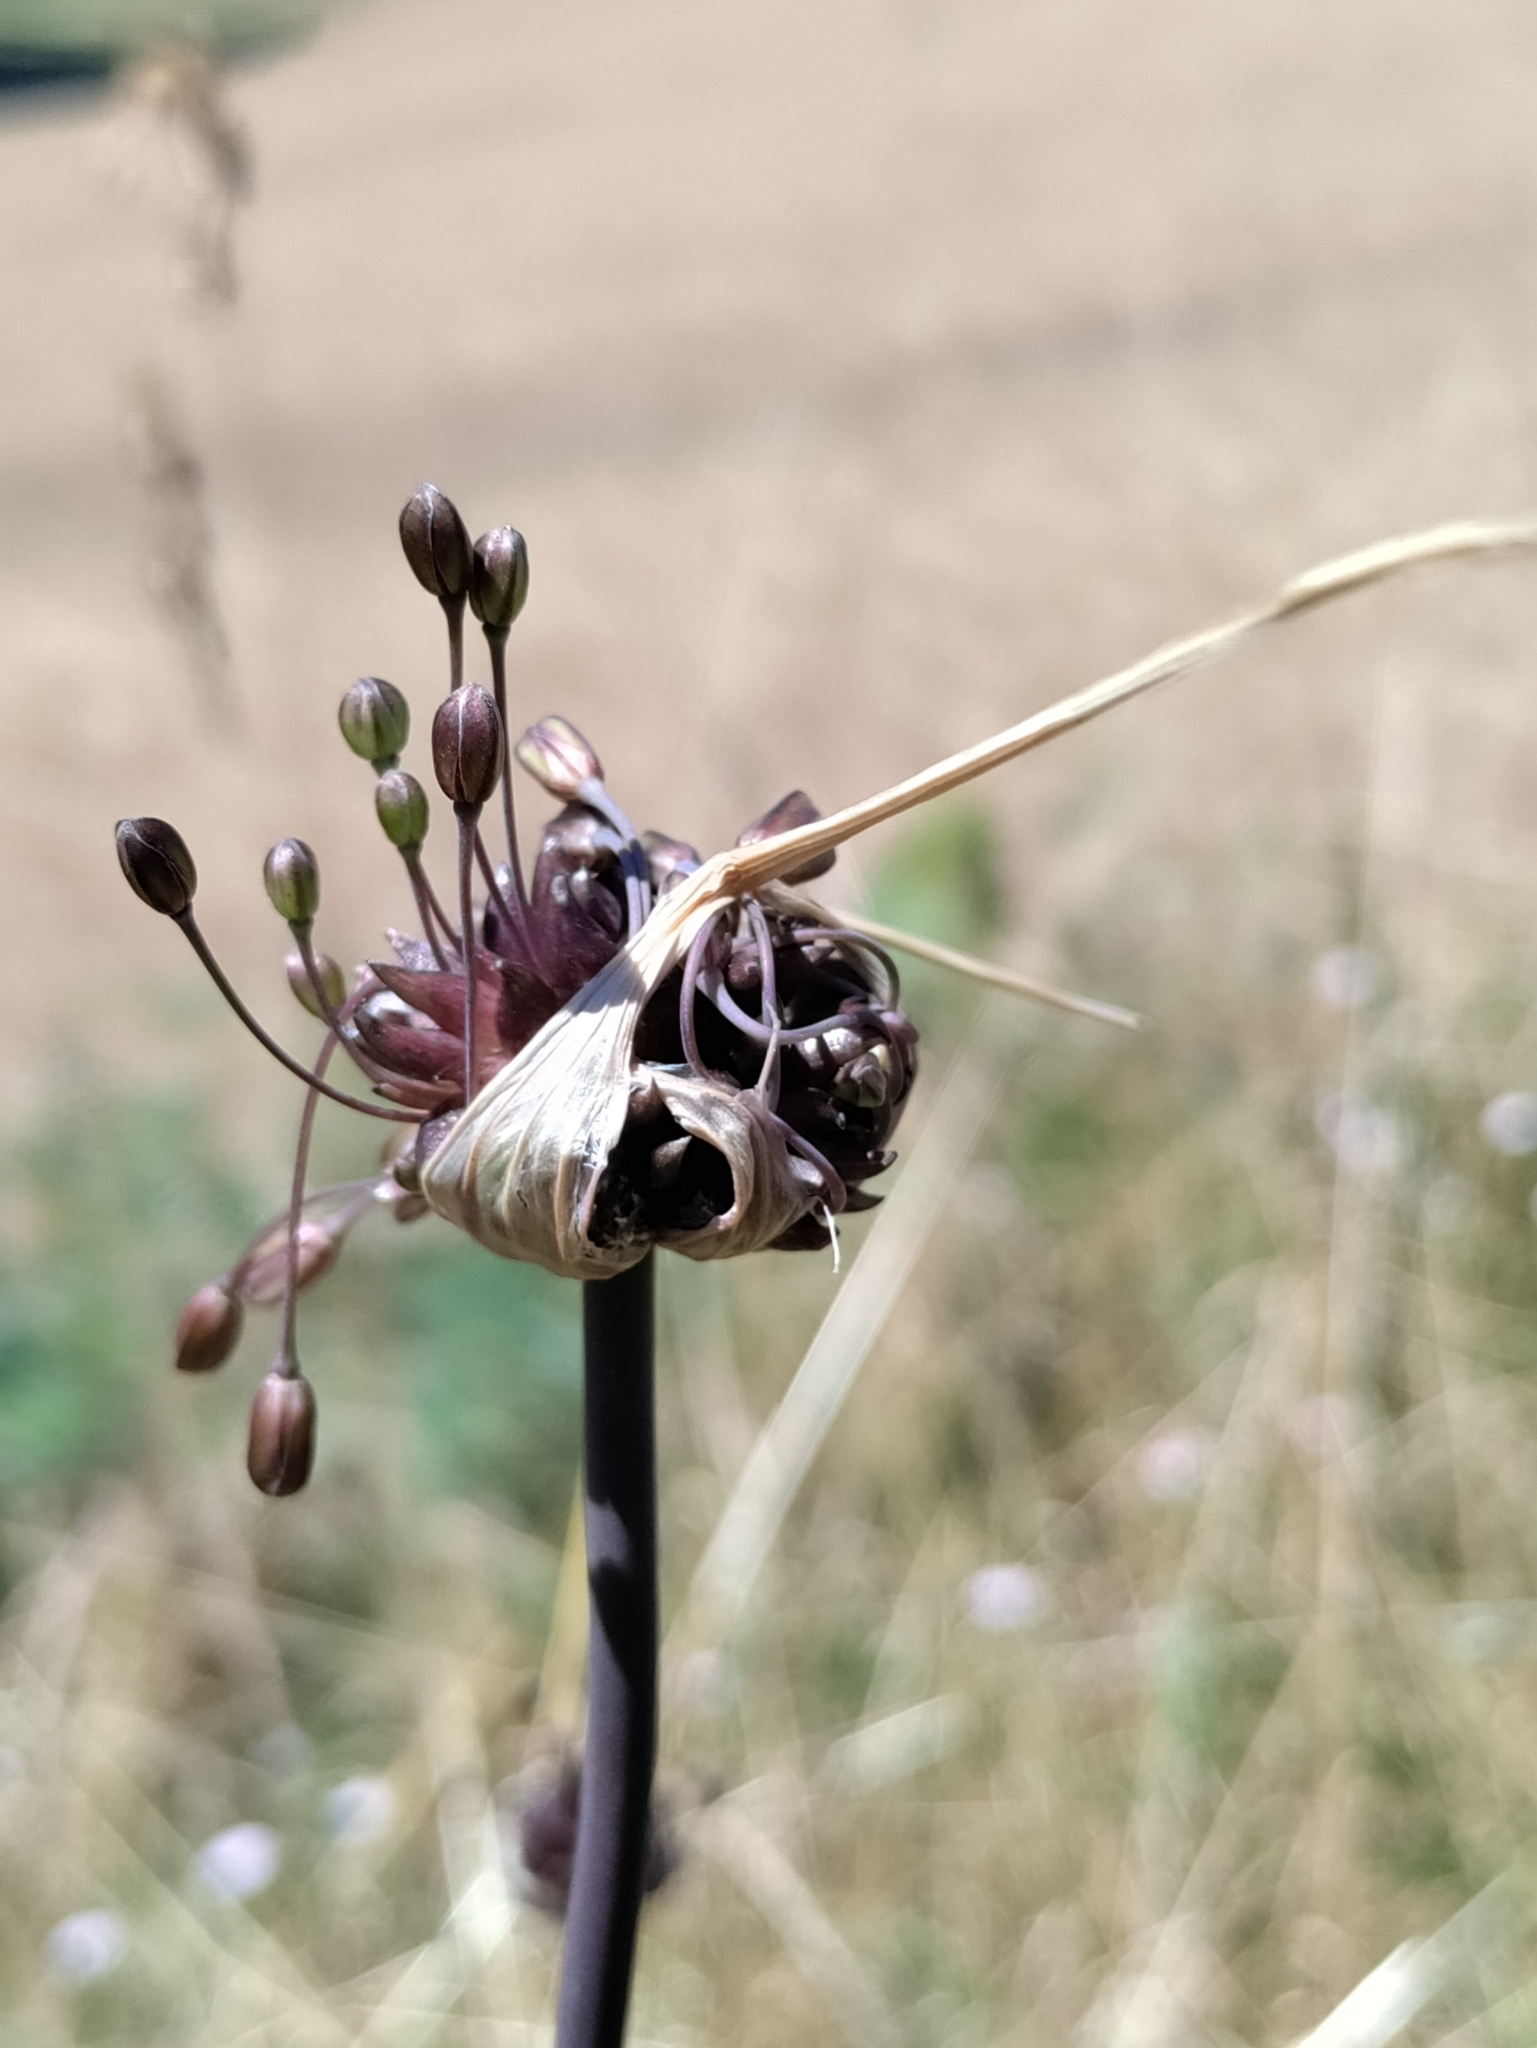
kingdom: Plantae
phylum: Tracheophyta
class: Liliopsida
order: Asparagales
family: Amaryllidaceae
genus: Allium
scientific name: Allium oleraceum
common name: Field garlic
